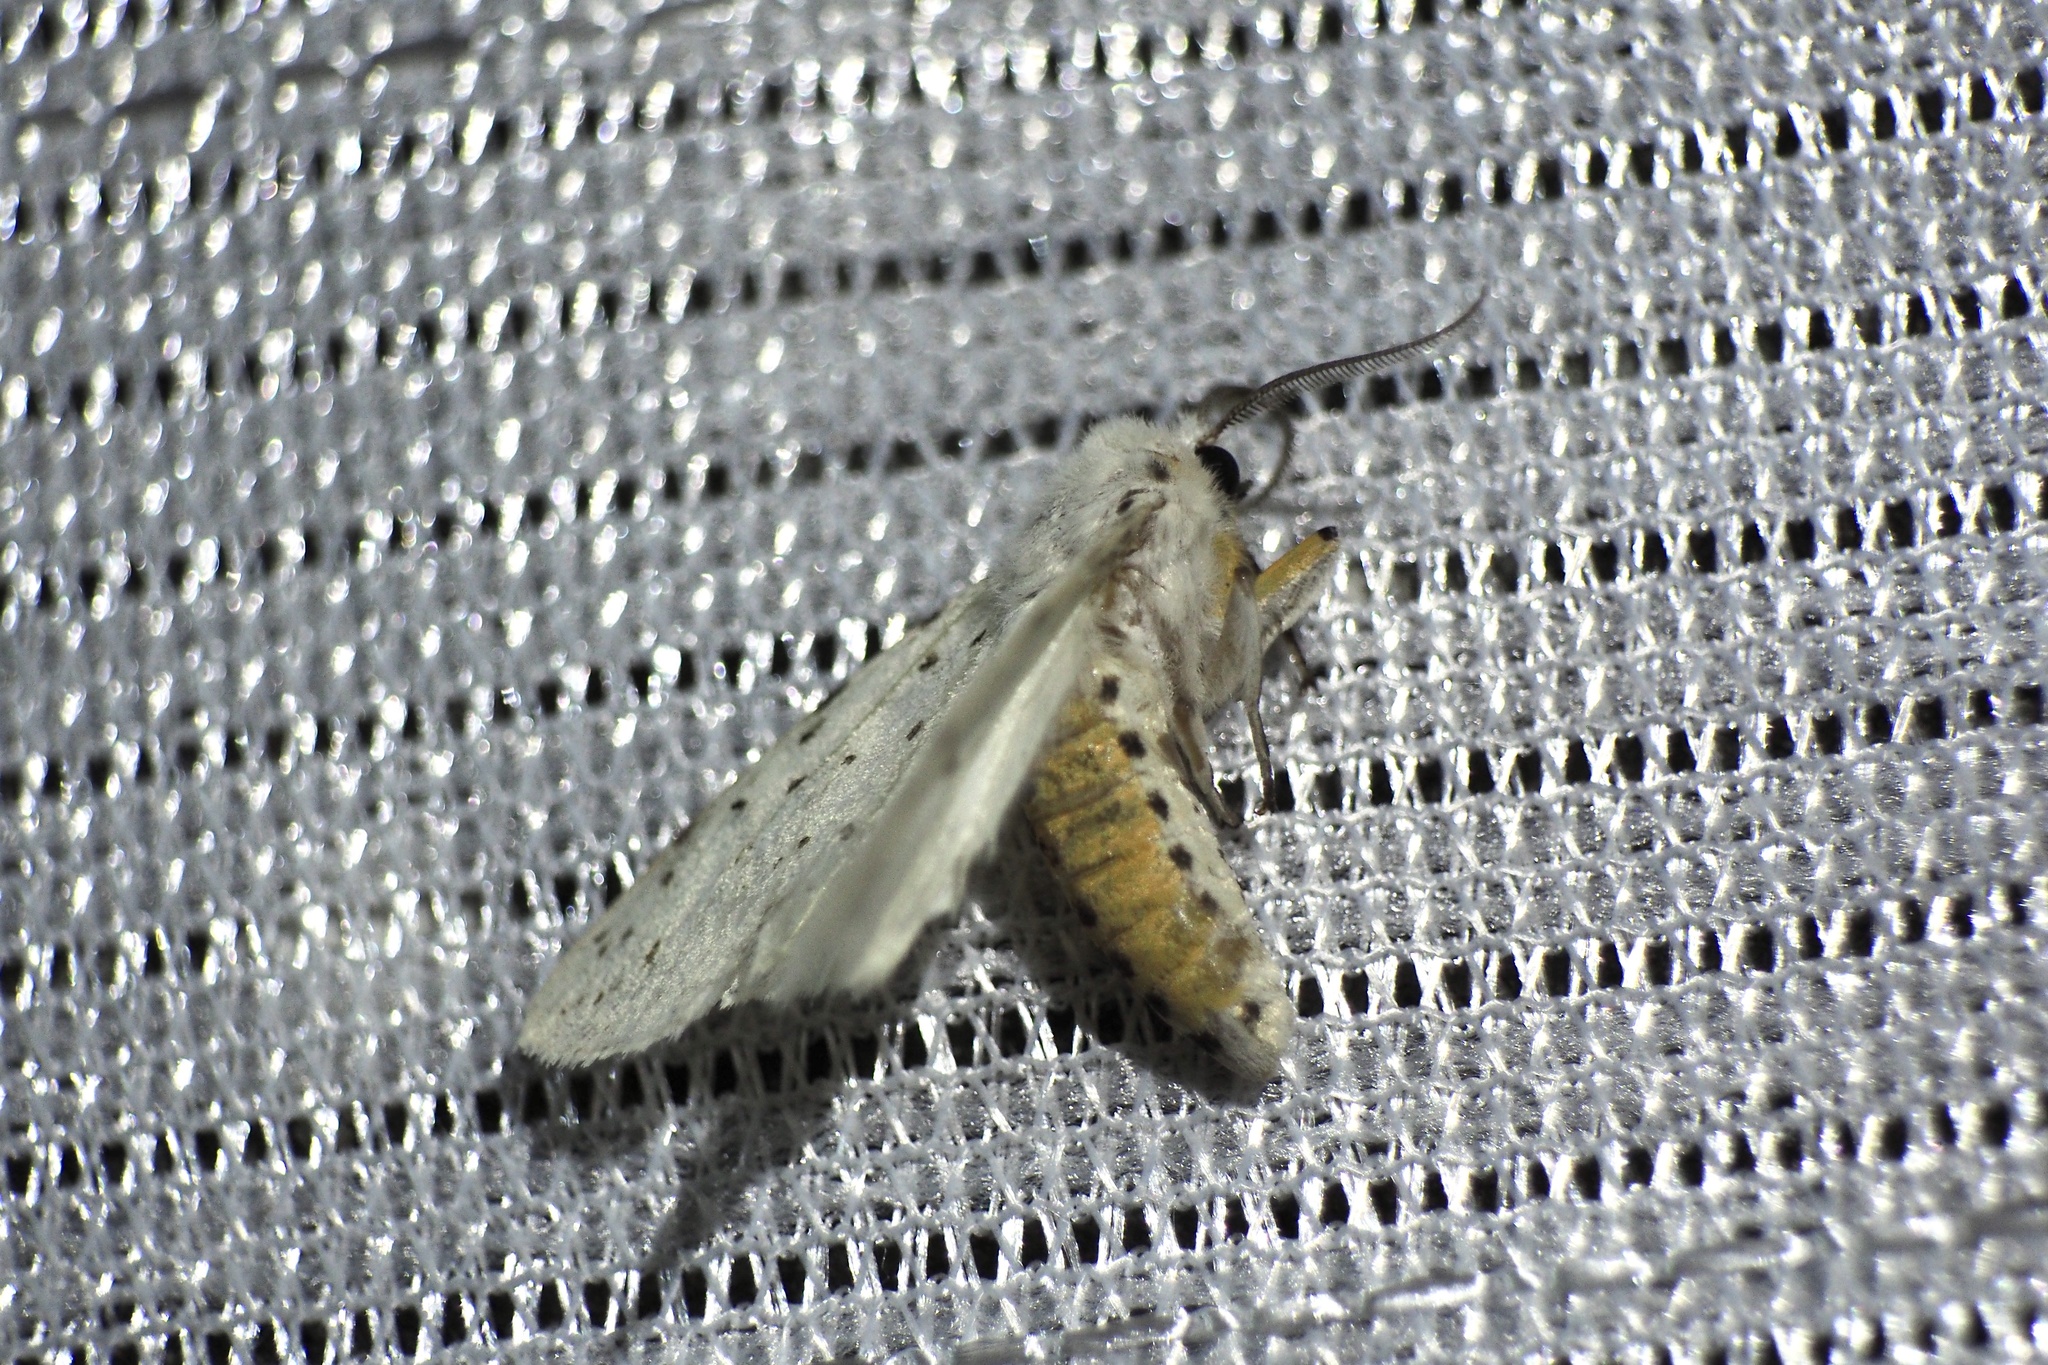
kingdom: Animalia
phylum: Arthropoda
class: Insecta
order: Lepidoptera
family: Erebidae
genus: Spilosoma
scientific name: Spilosoma lubricipeda
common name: White ermine
